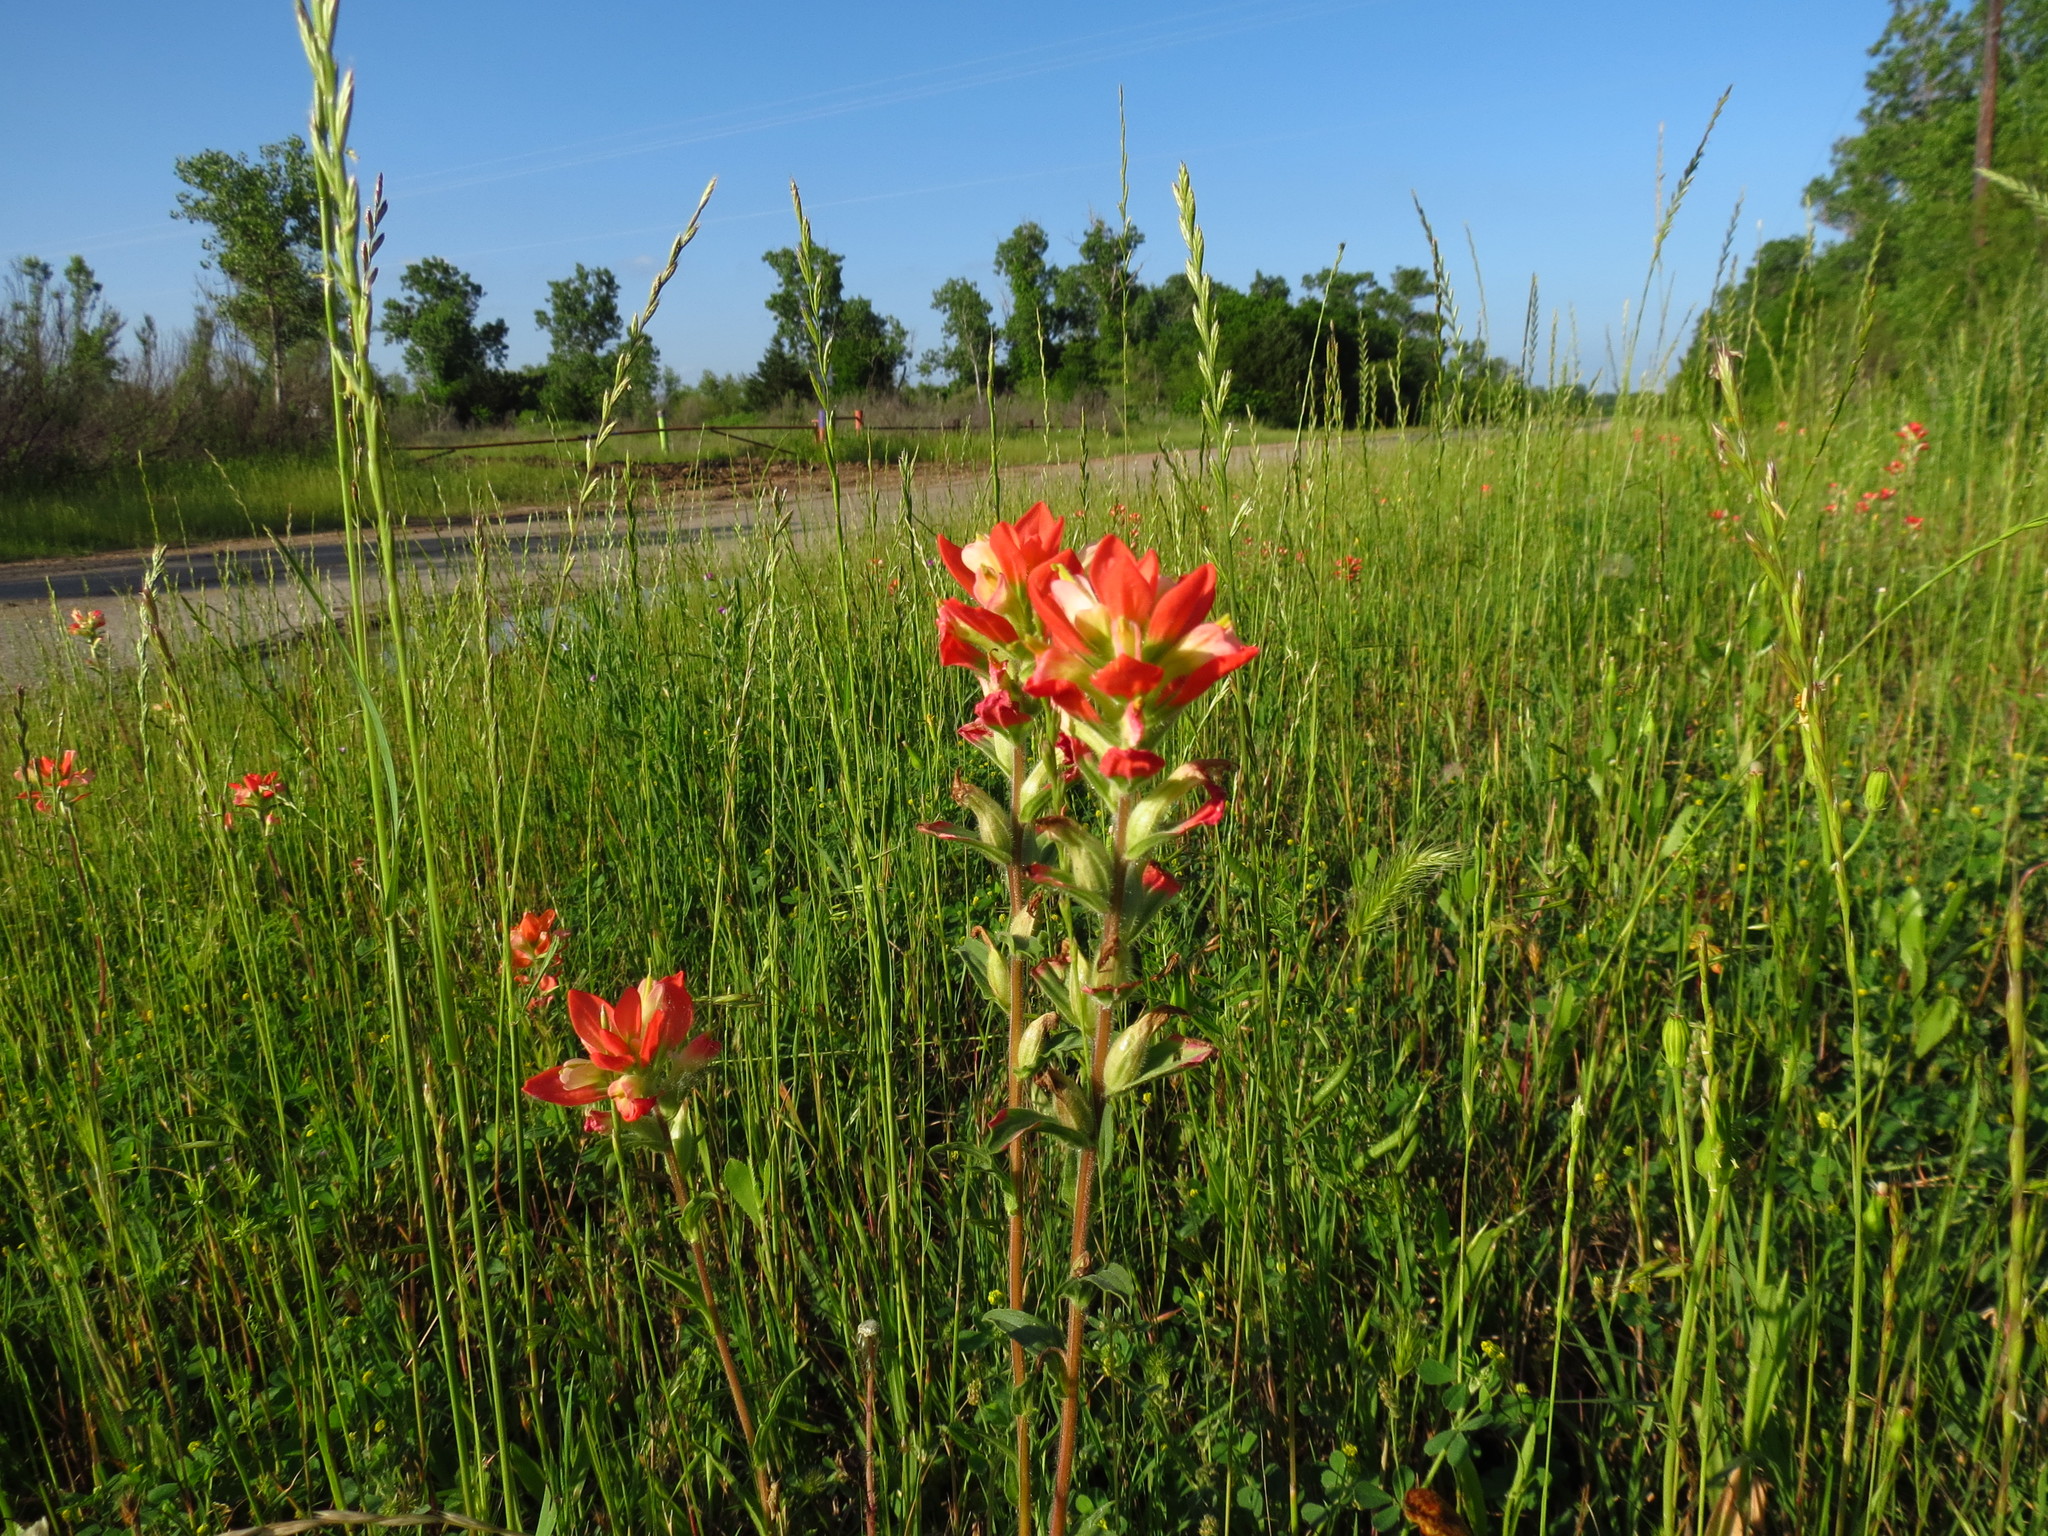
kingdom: Plantae
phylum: Tracheophyta
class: Magnoliopsida
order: Lamiales
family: Orobanchaceae
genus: Castilleja
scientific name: Castilleja indivisa
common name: Texas paintbrush
